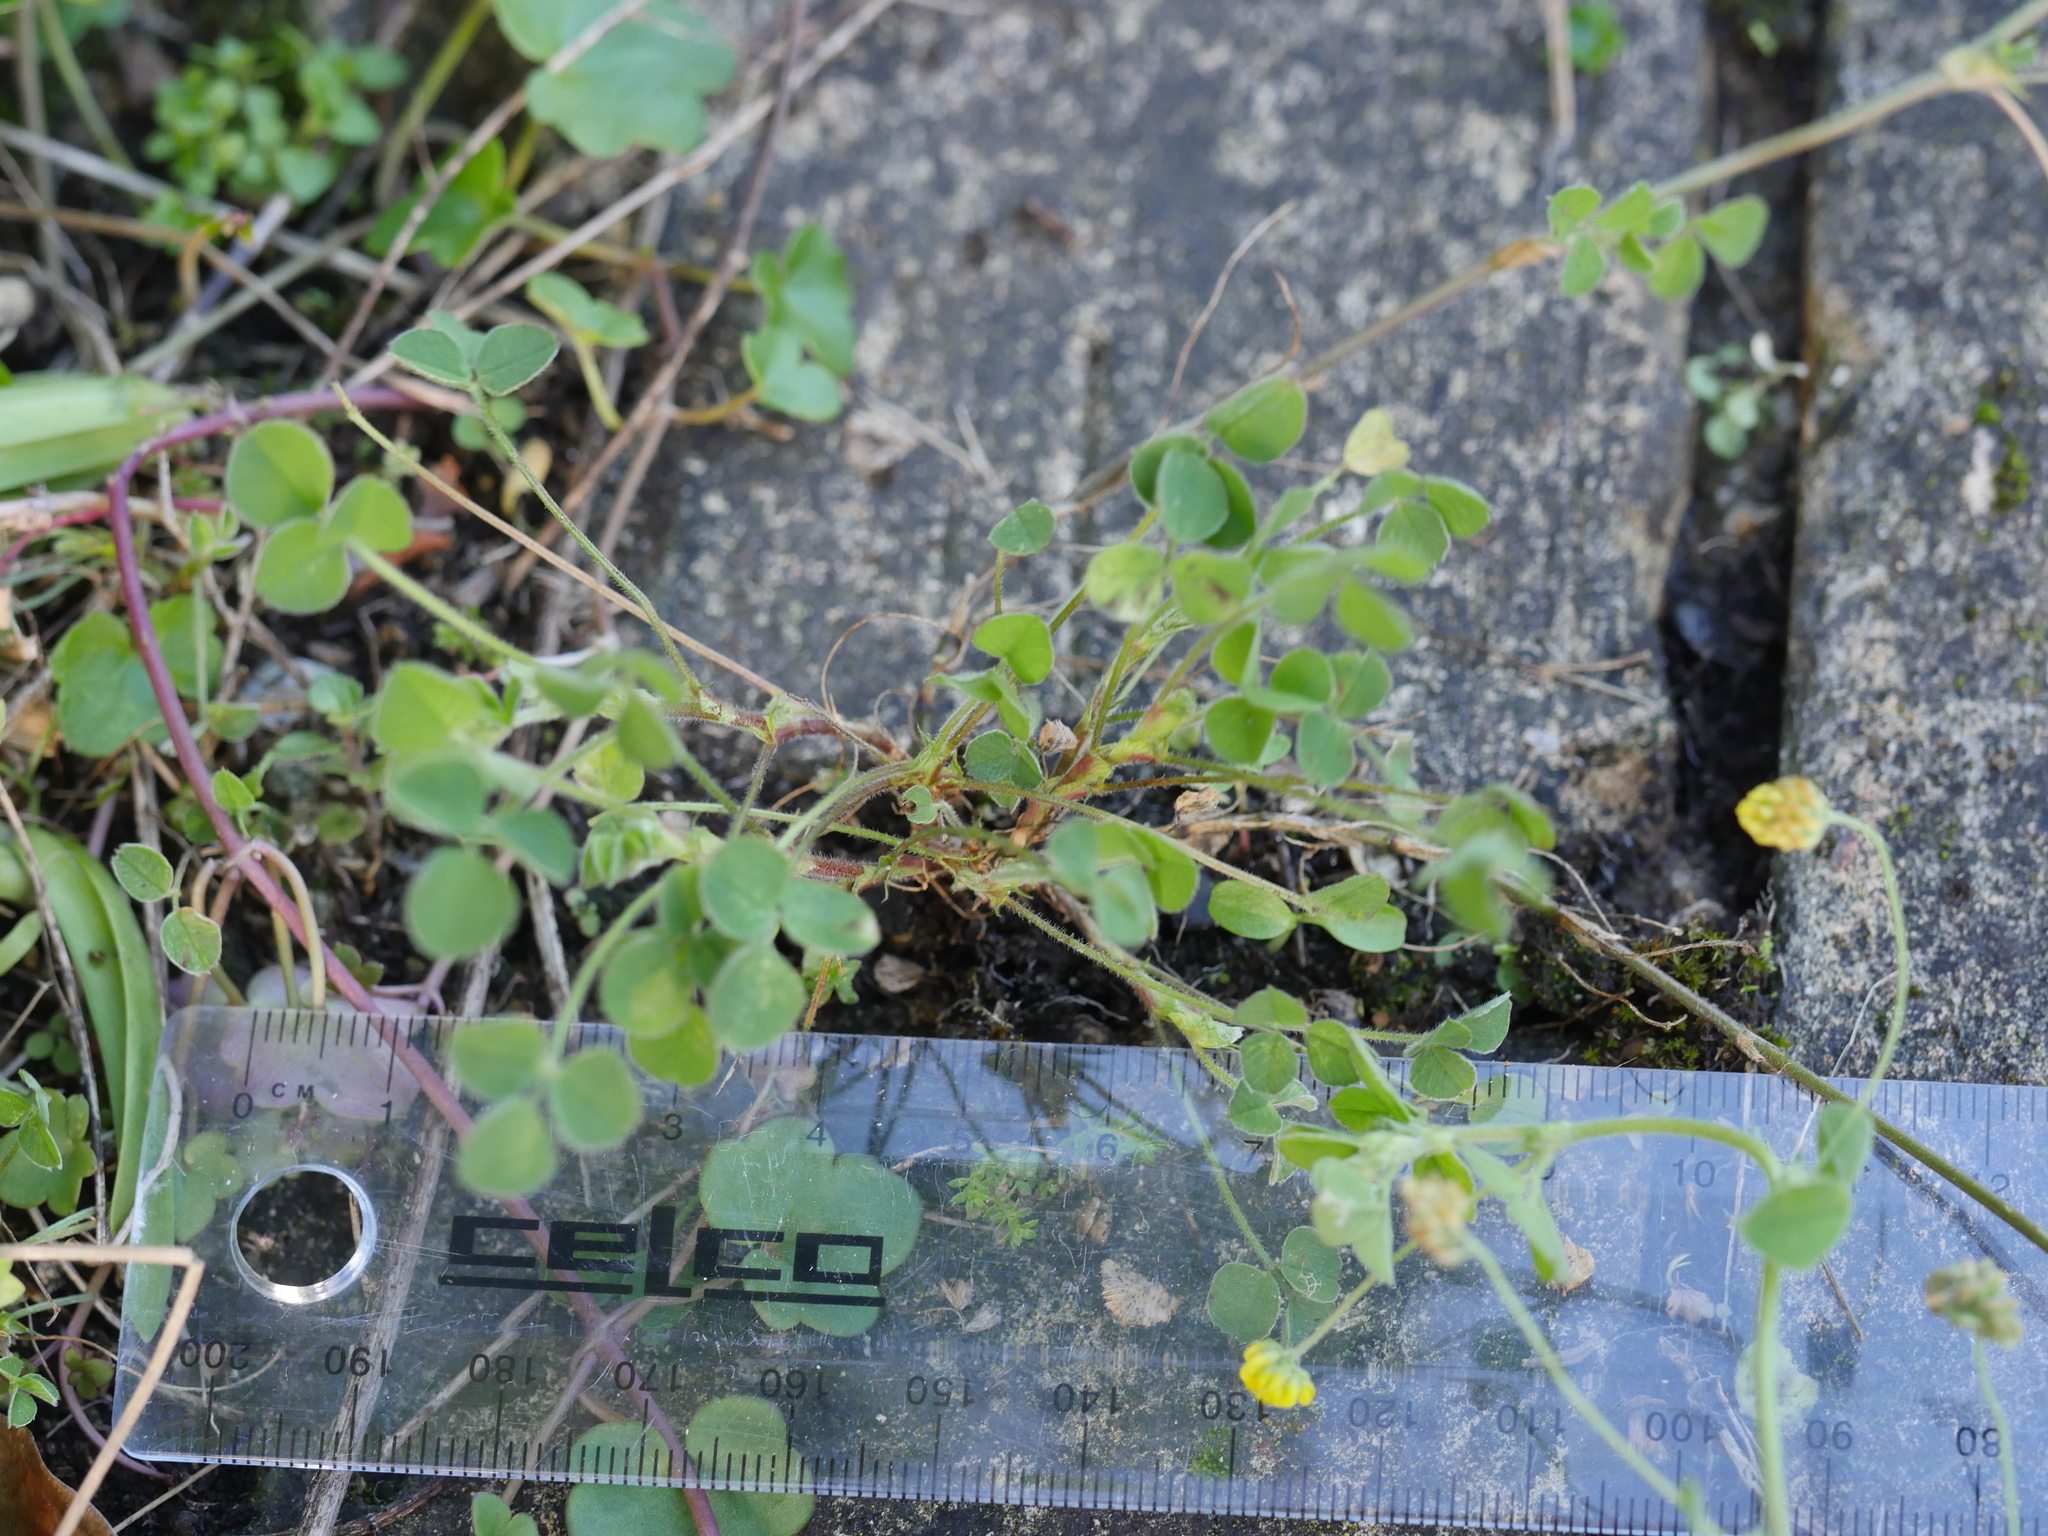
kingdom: Plantae
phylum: Tracheophyta
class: Magnoliopsida
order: Fabales
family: Fabaceae
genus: Medicago
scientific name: Medicago lupulina
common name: Black medick
